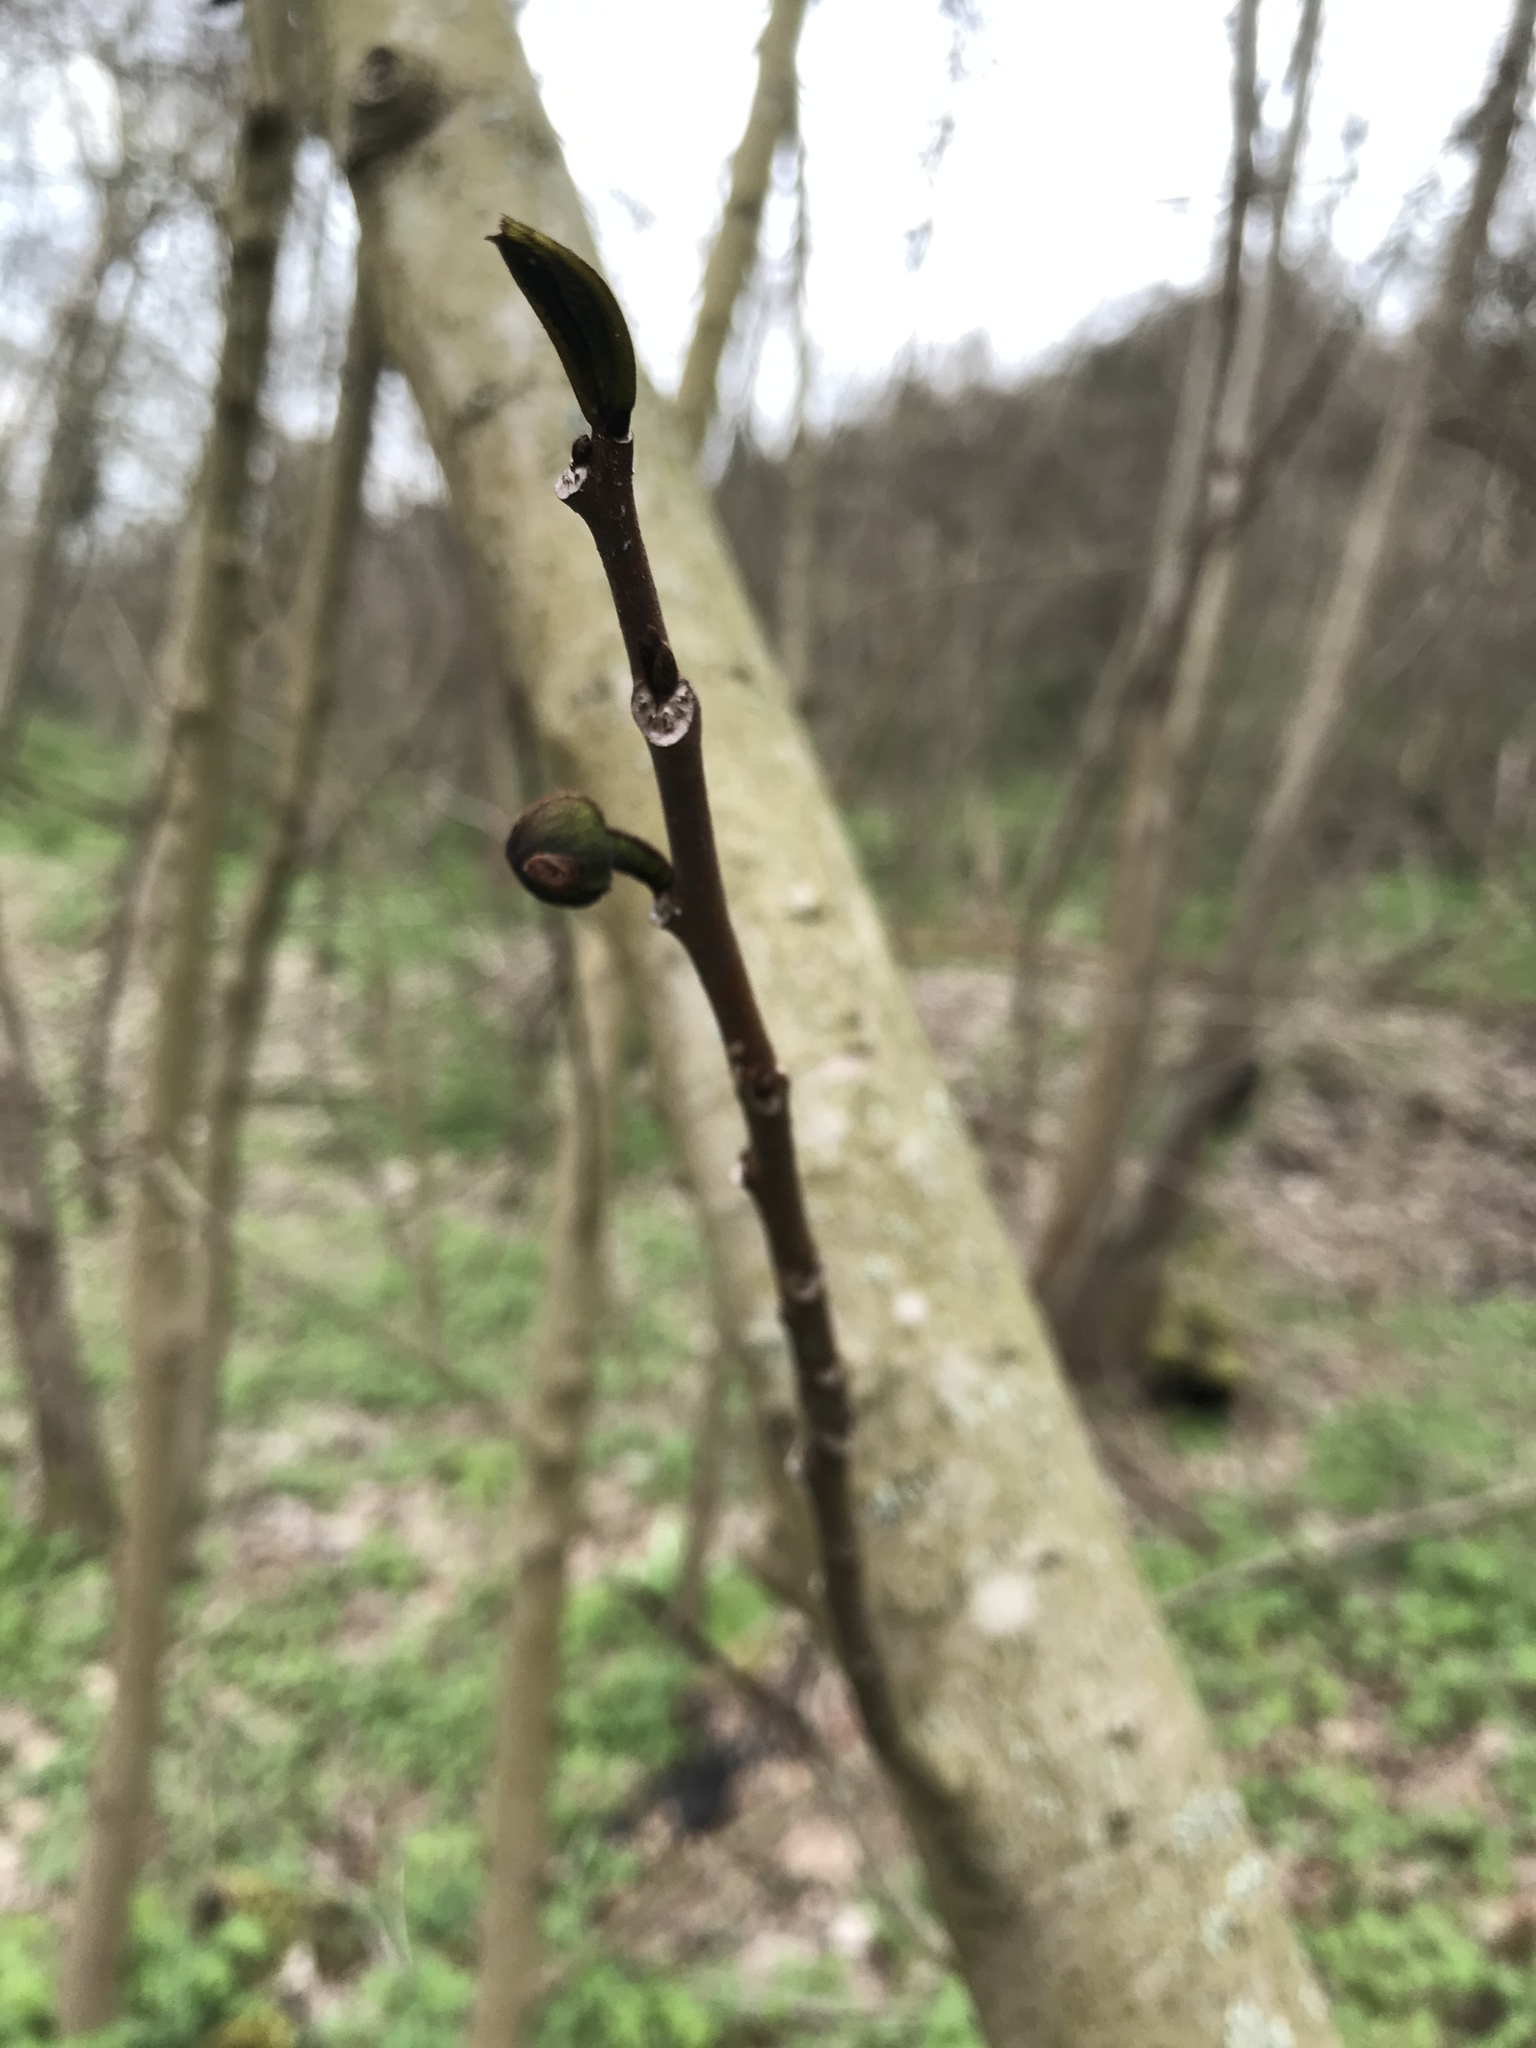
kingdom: Plantae
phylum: Tracheophyta
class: Magnoliopsida
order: Magnoliales
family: Annonaceae
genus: Asimina
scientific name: Asimina triloba
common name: Dog-banana
